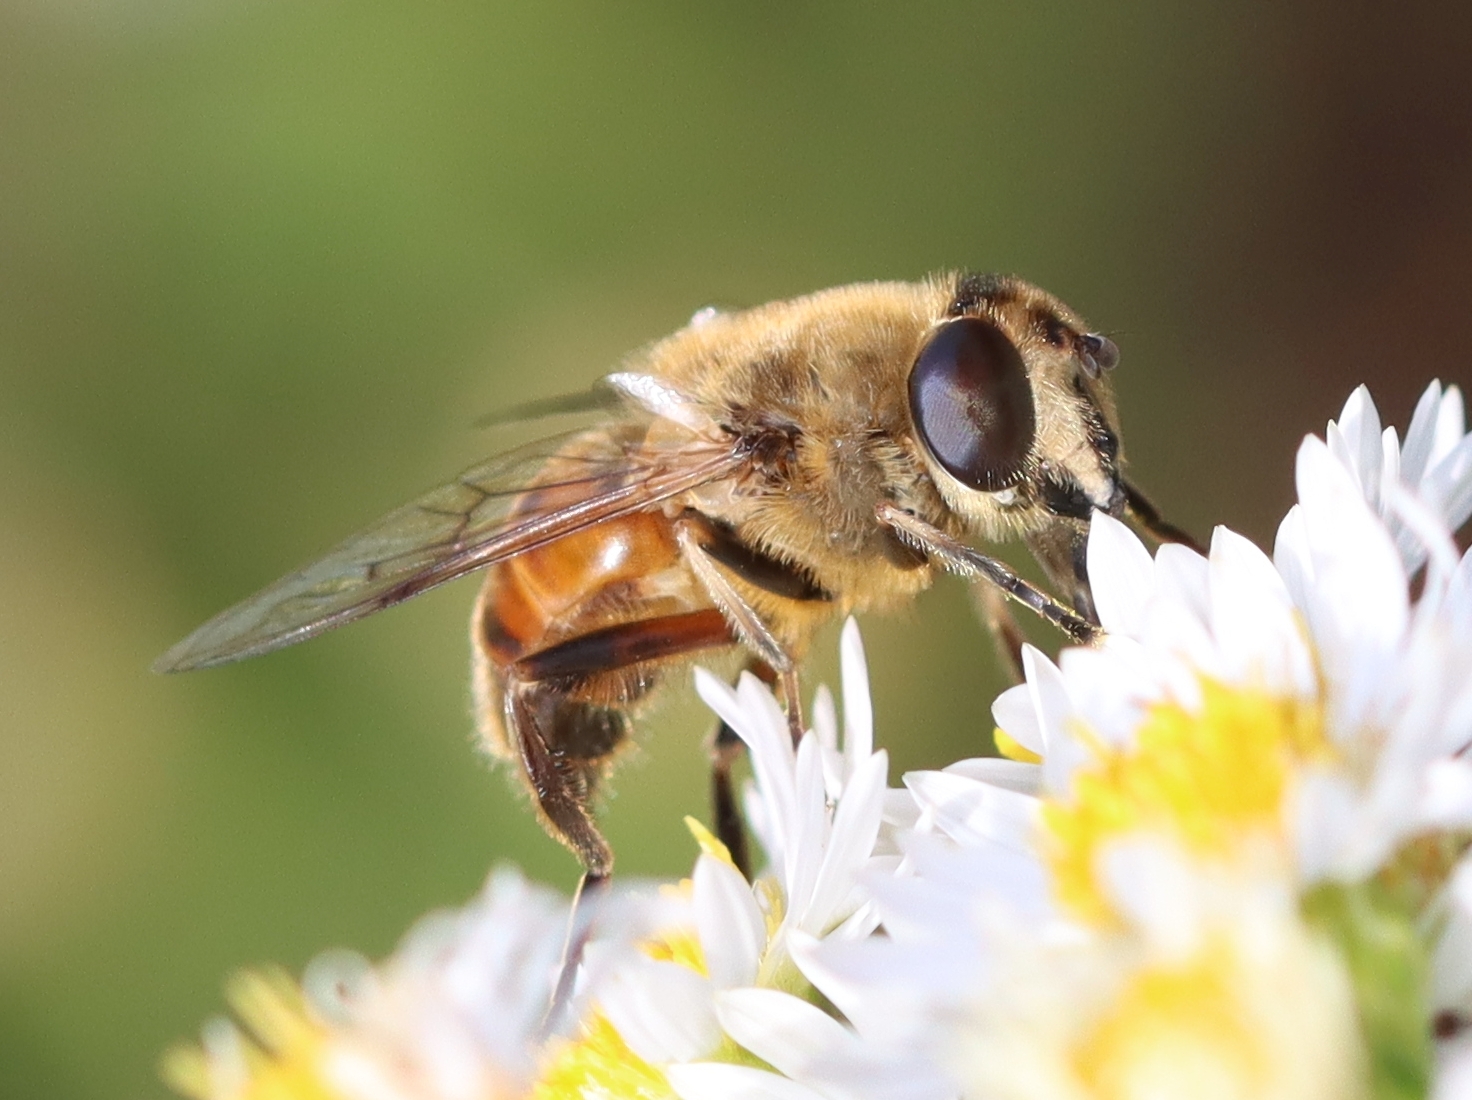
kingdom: Animalia
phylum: Arthropoda
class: Insecta
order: Diptera
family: Syrphidae
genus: Eristalis
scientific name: Eristalis tenax
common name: Drone fly
